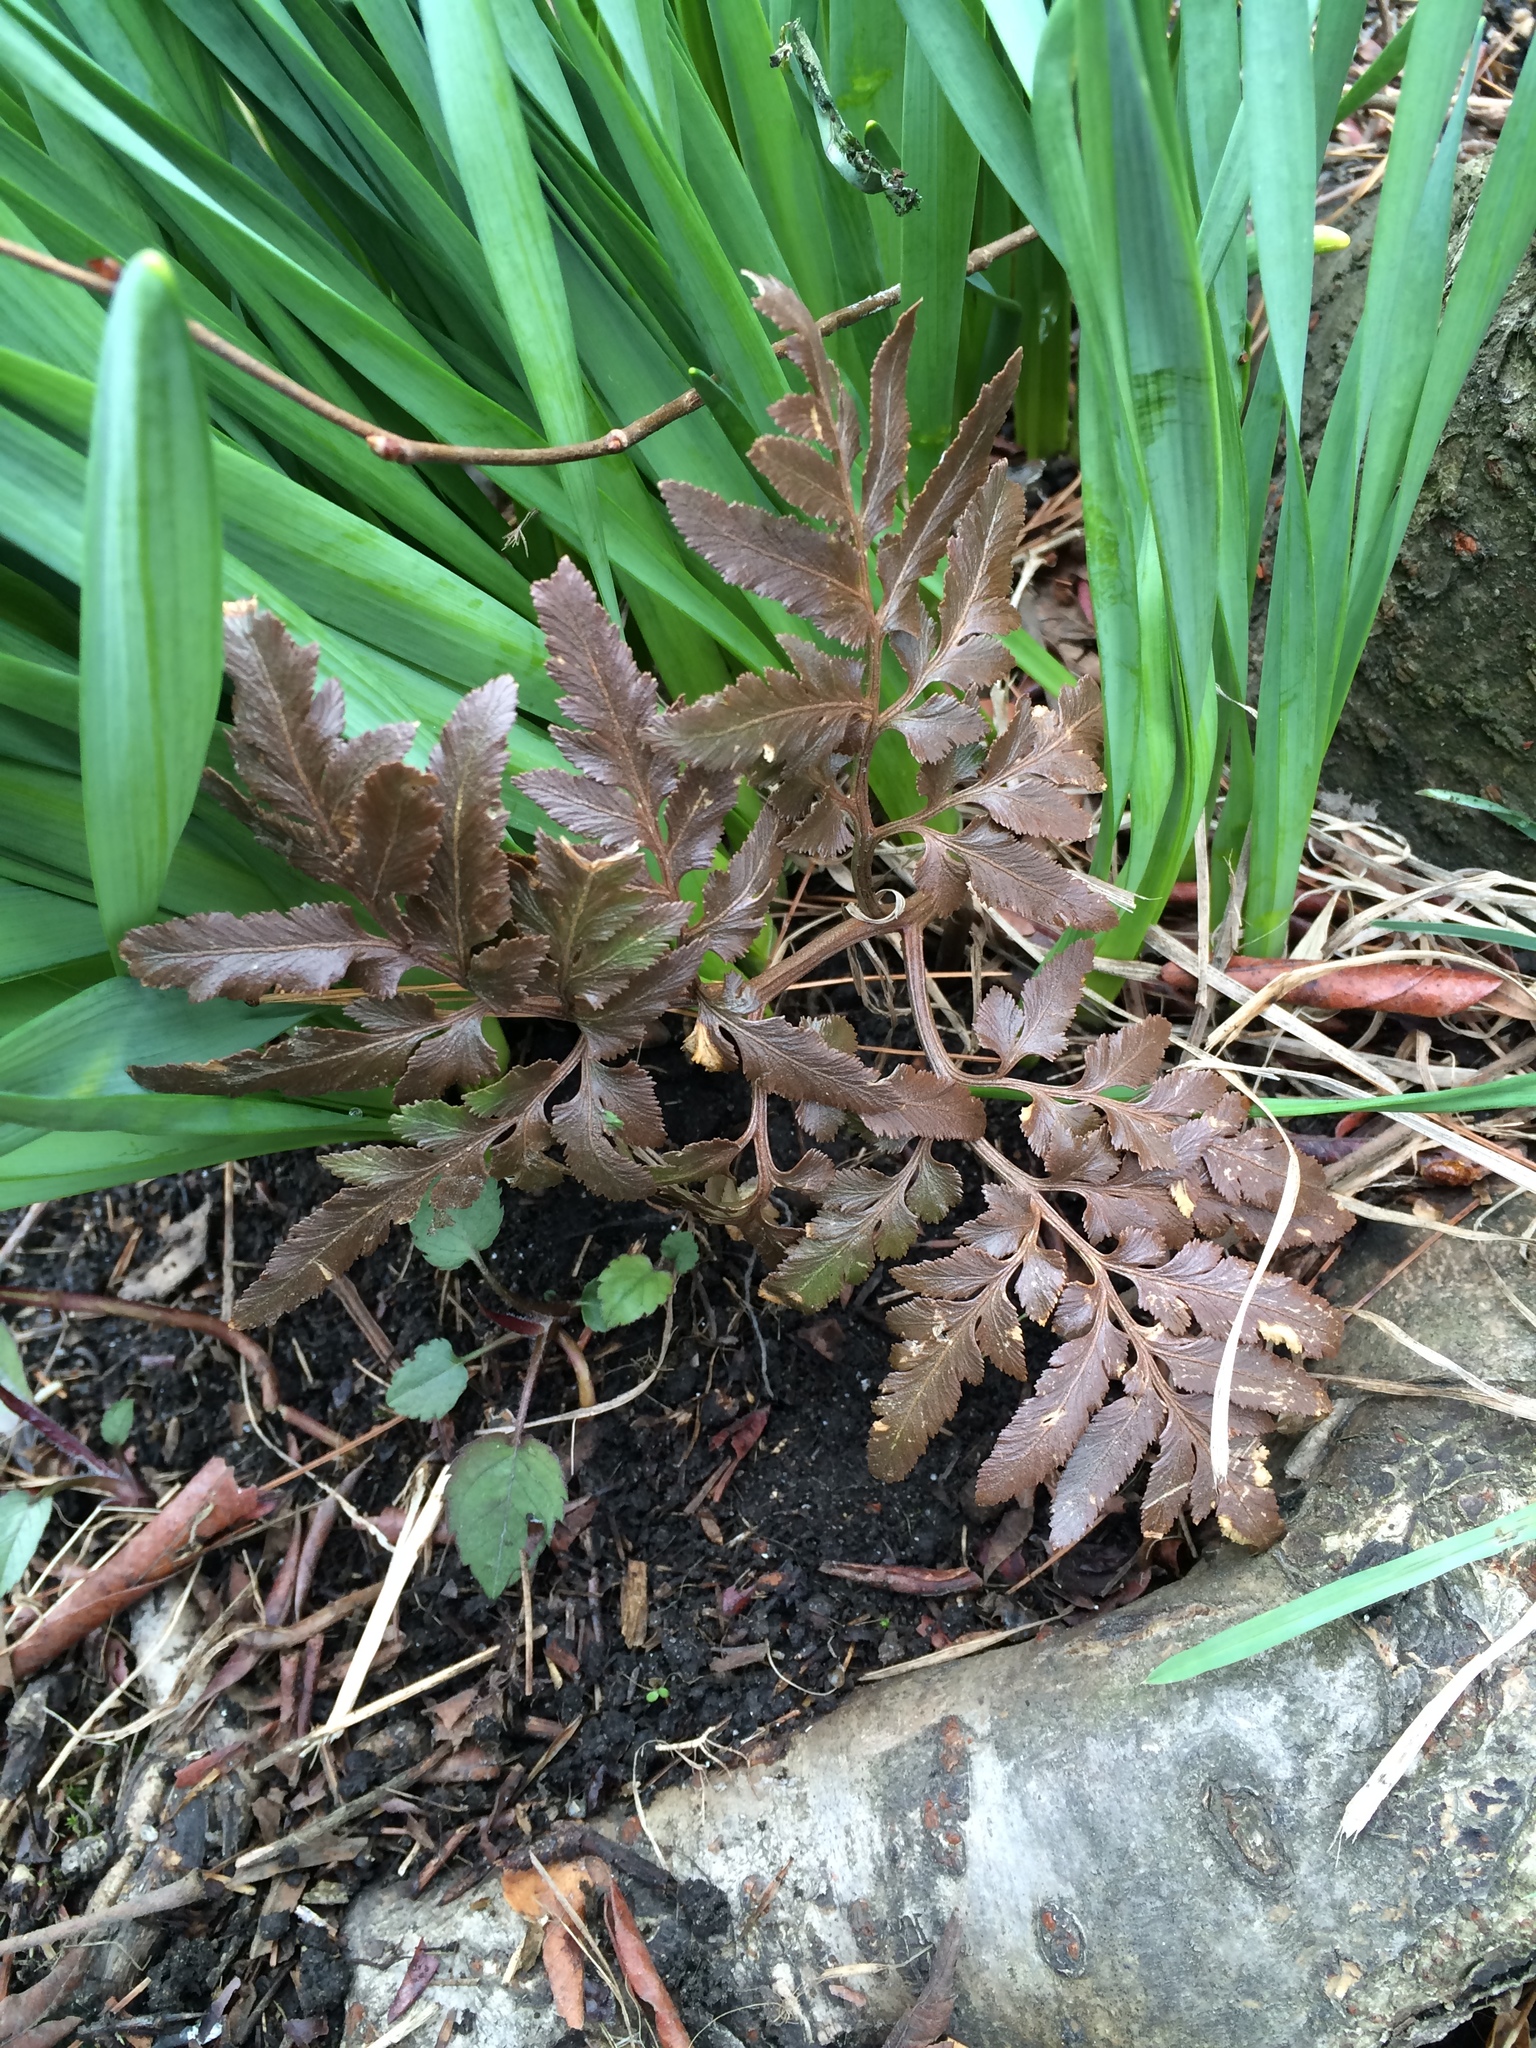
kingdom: Plantae
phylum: Tracheophyta
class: Polypodiopsida
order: Ophioglossales
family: Ophioglossaceae
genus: Sceptridium
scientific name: Sceptridium dissectum
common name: Cut-leaved grapefern
